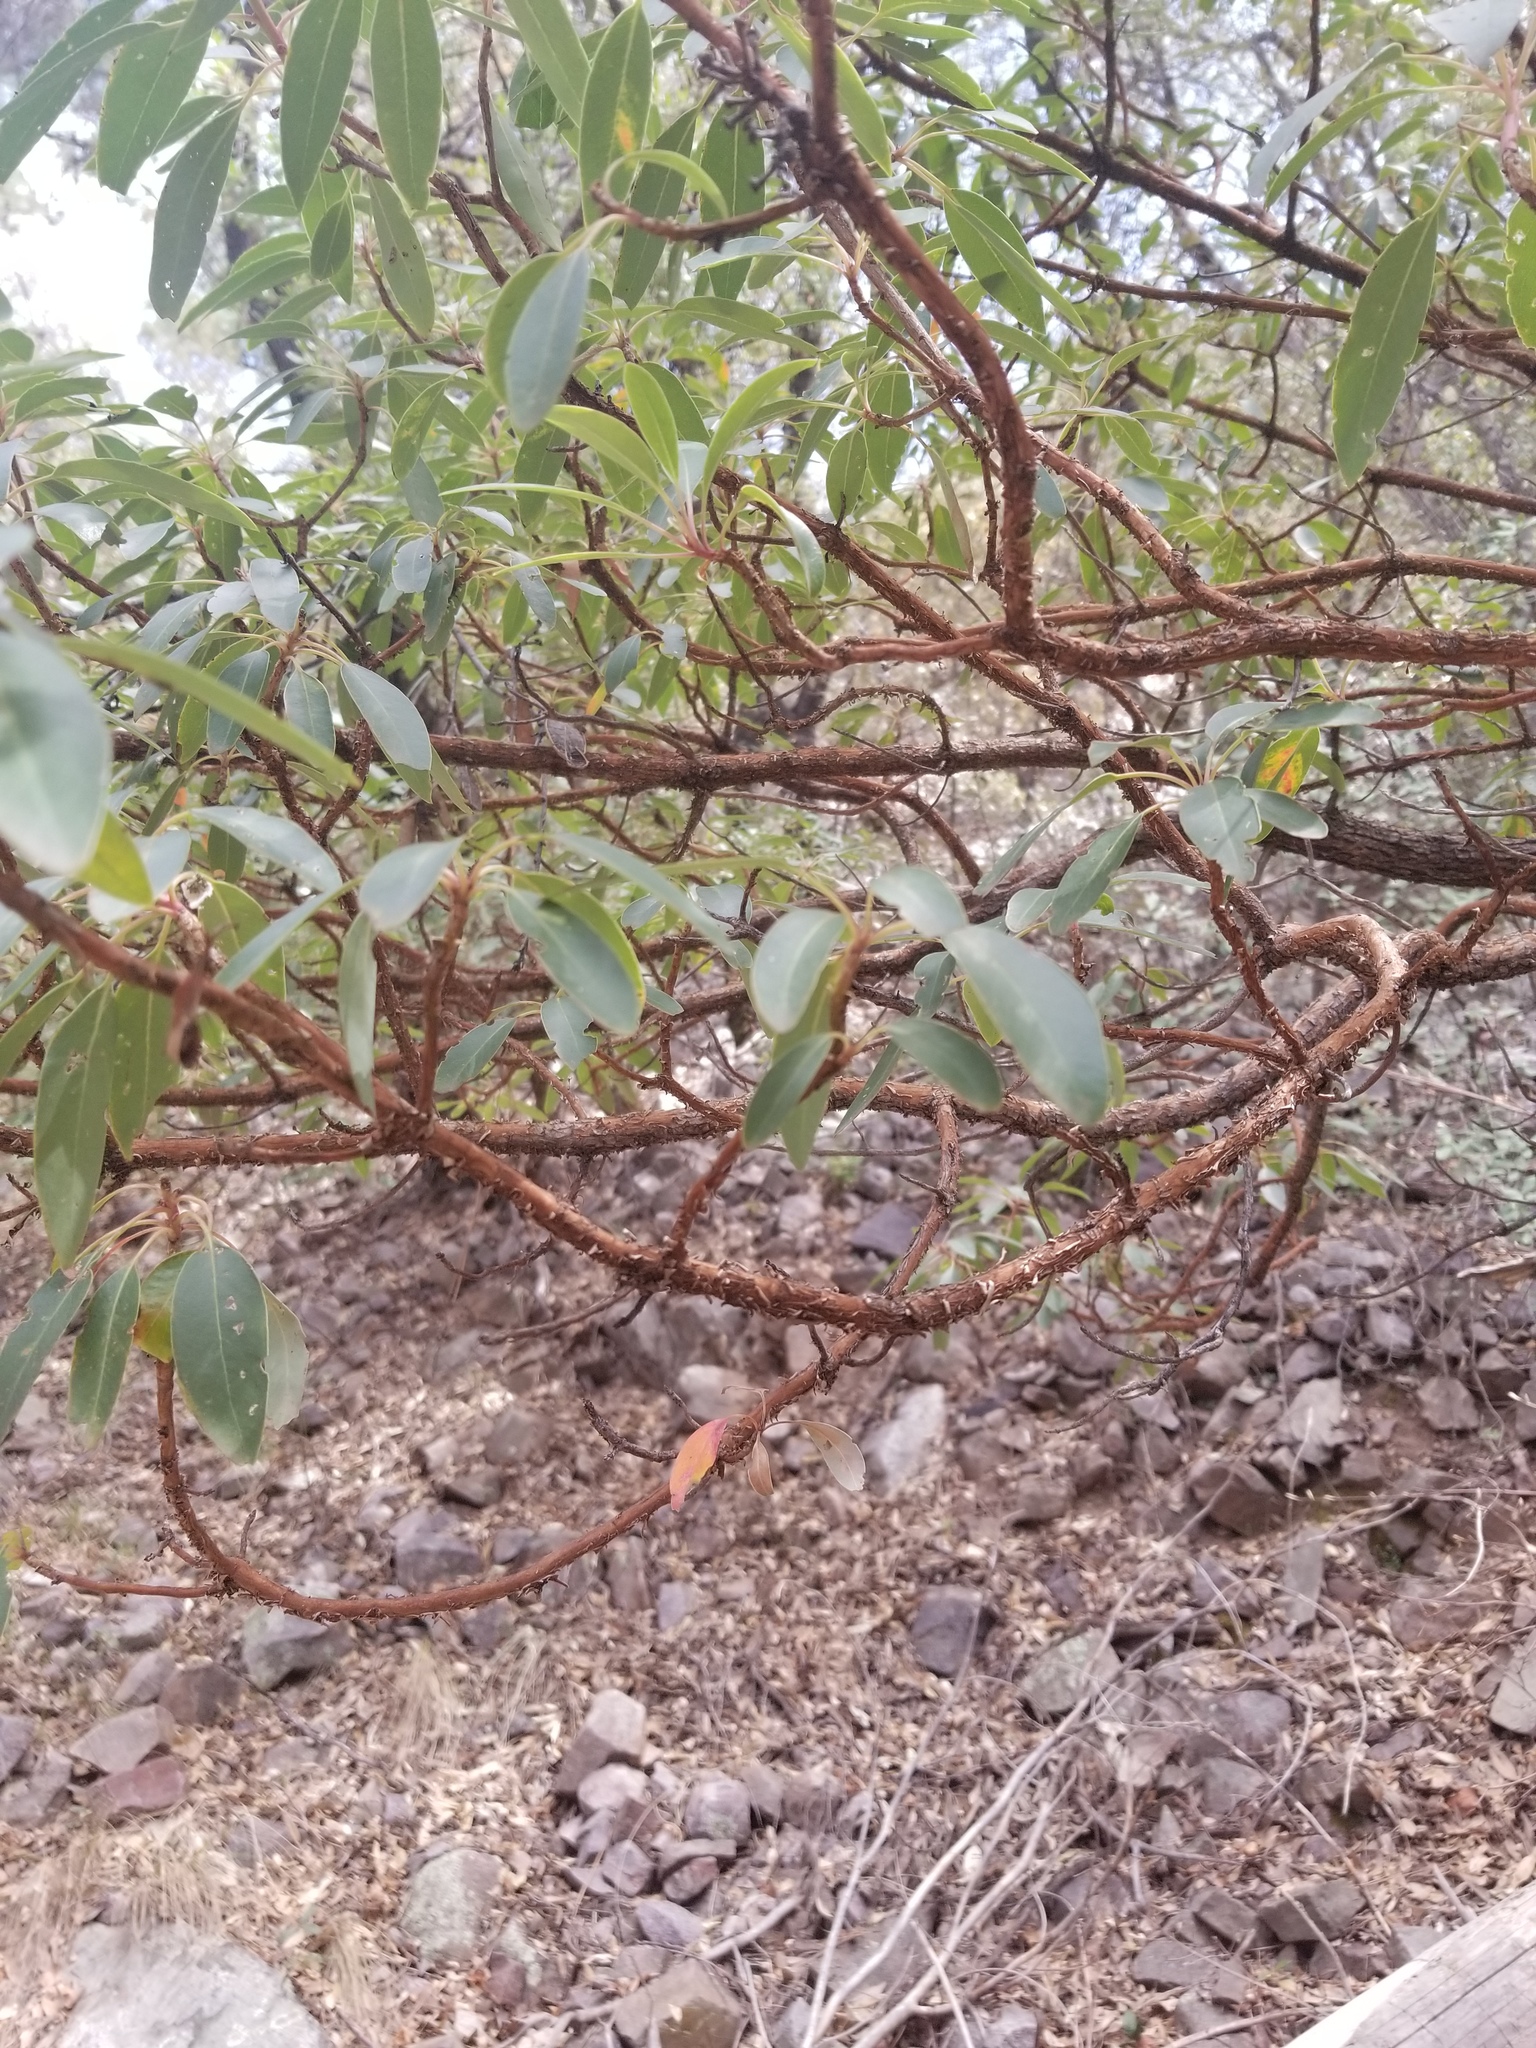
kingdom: Plantae
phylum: Tracheophyta
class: Magnoliopsida
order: Ericales
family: Ericaceae
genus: Arbutus
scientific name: Arbutus arizonica
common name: Arizona madrone
